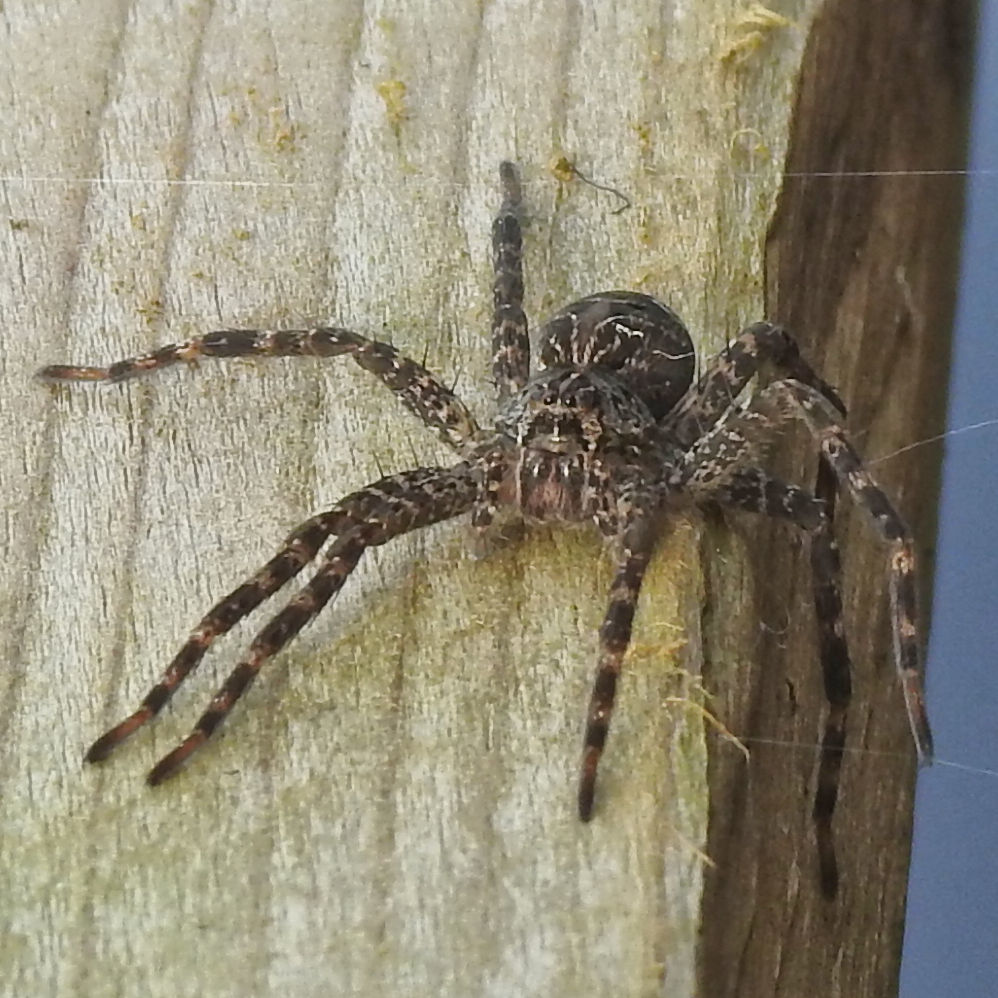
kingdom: Animalia
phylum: Arthropoda
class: Arachnida
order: Araneae
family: Pisauridae
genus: Dolomedes
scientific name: Dolomedes scriptus
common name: Striped fishing spider
